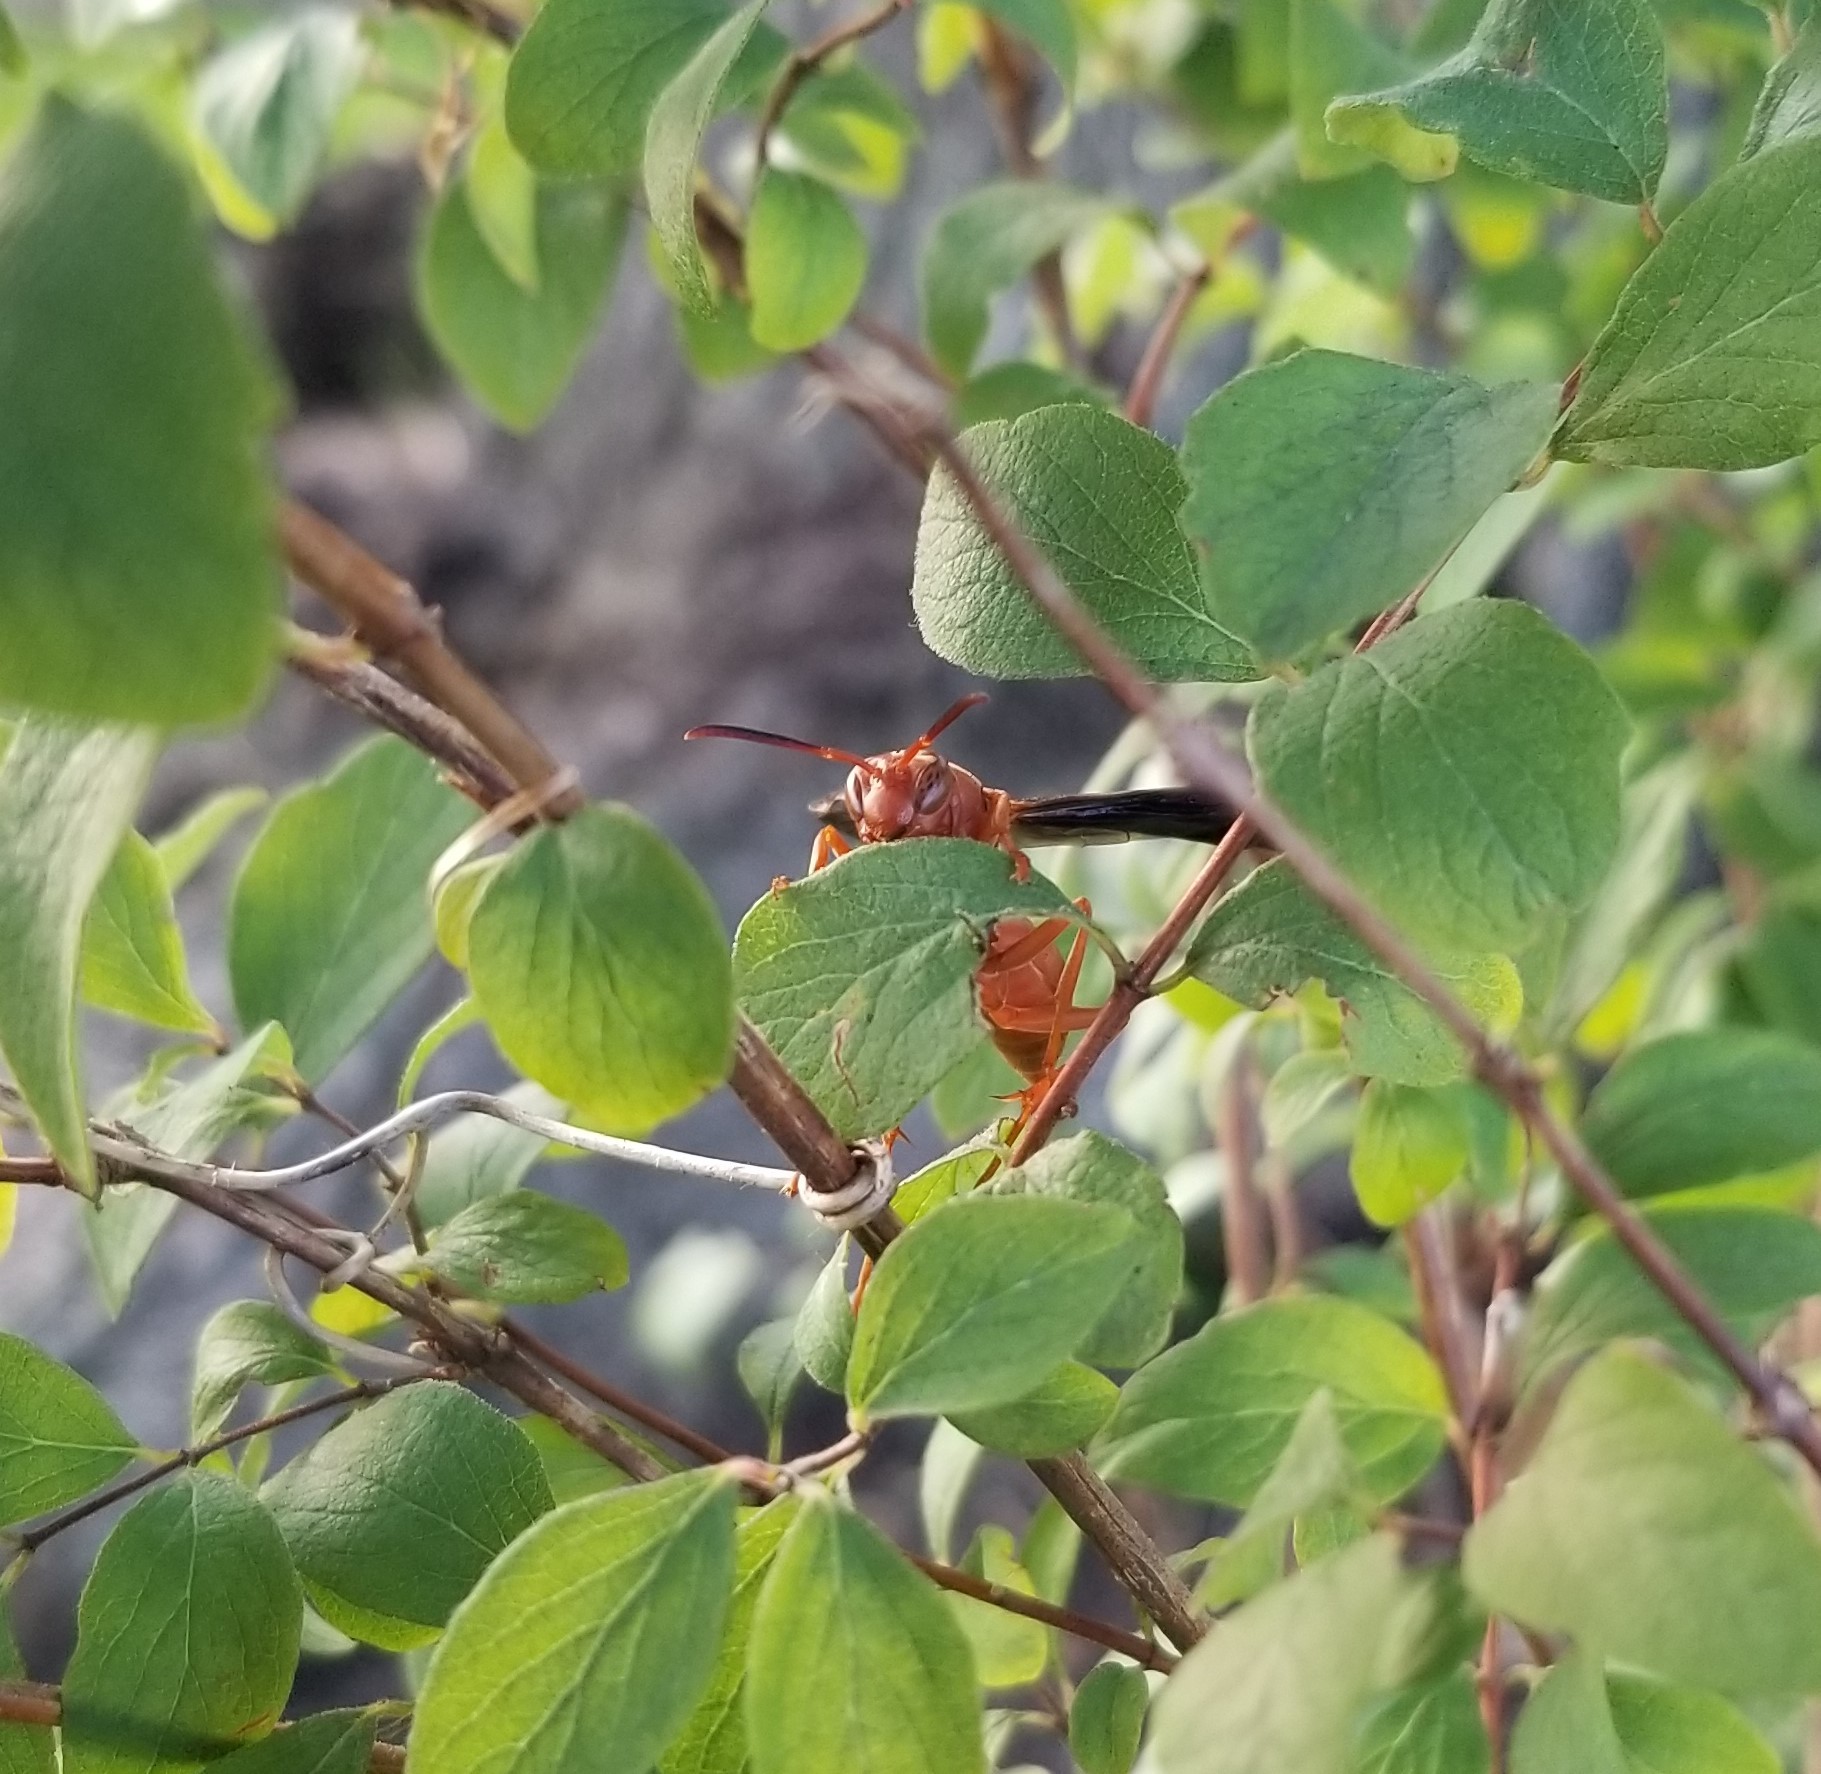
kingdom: Animalia
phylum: Arthropoda
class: Insecta
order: Hymenoptera
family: Vespidae
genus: Fuscopolistes
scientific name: Fuscopolistes
